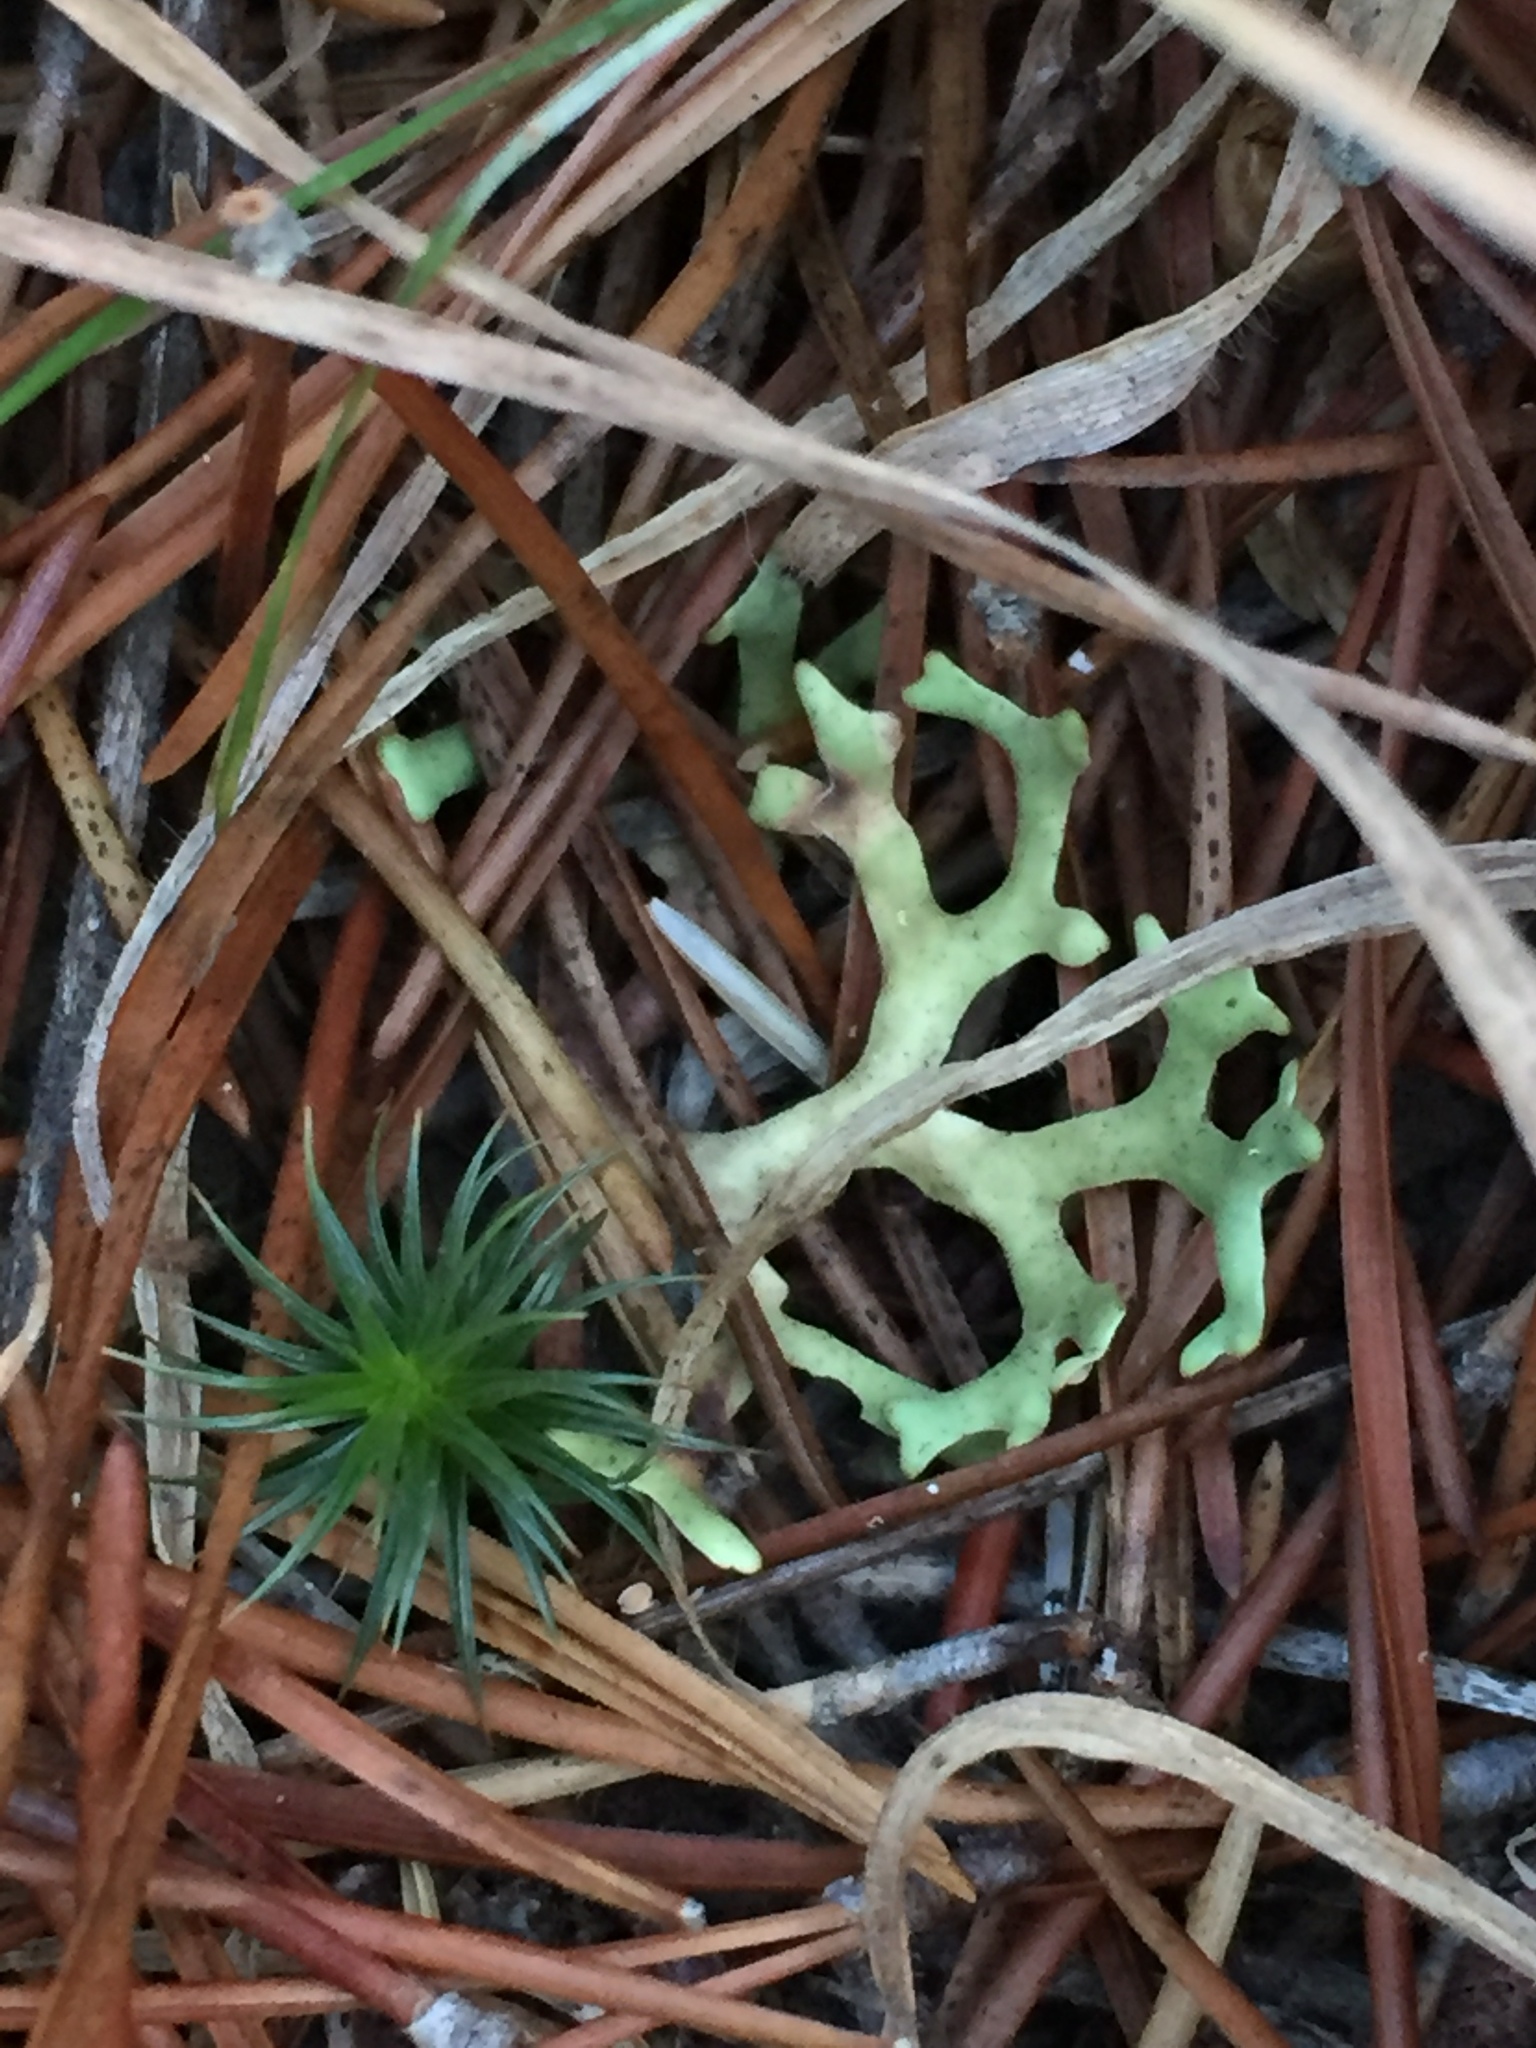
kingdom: Fungi
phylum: Ascomycota
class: Lecanoromycetes
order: Lecanorales
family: Parmeliaceae
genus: Xanthoparmelia
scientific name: Xanthoparmelia semiviridis
